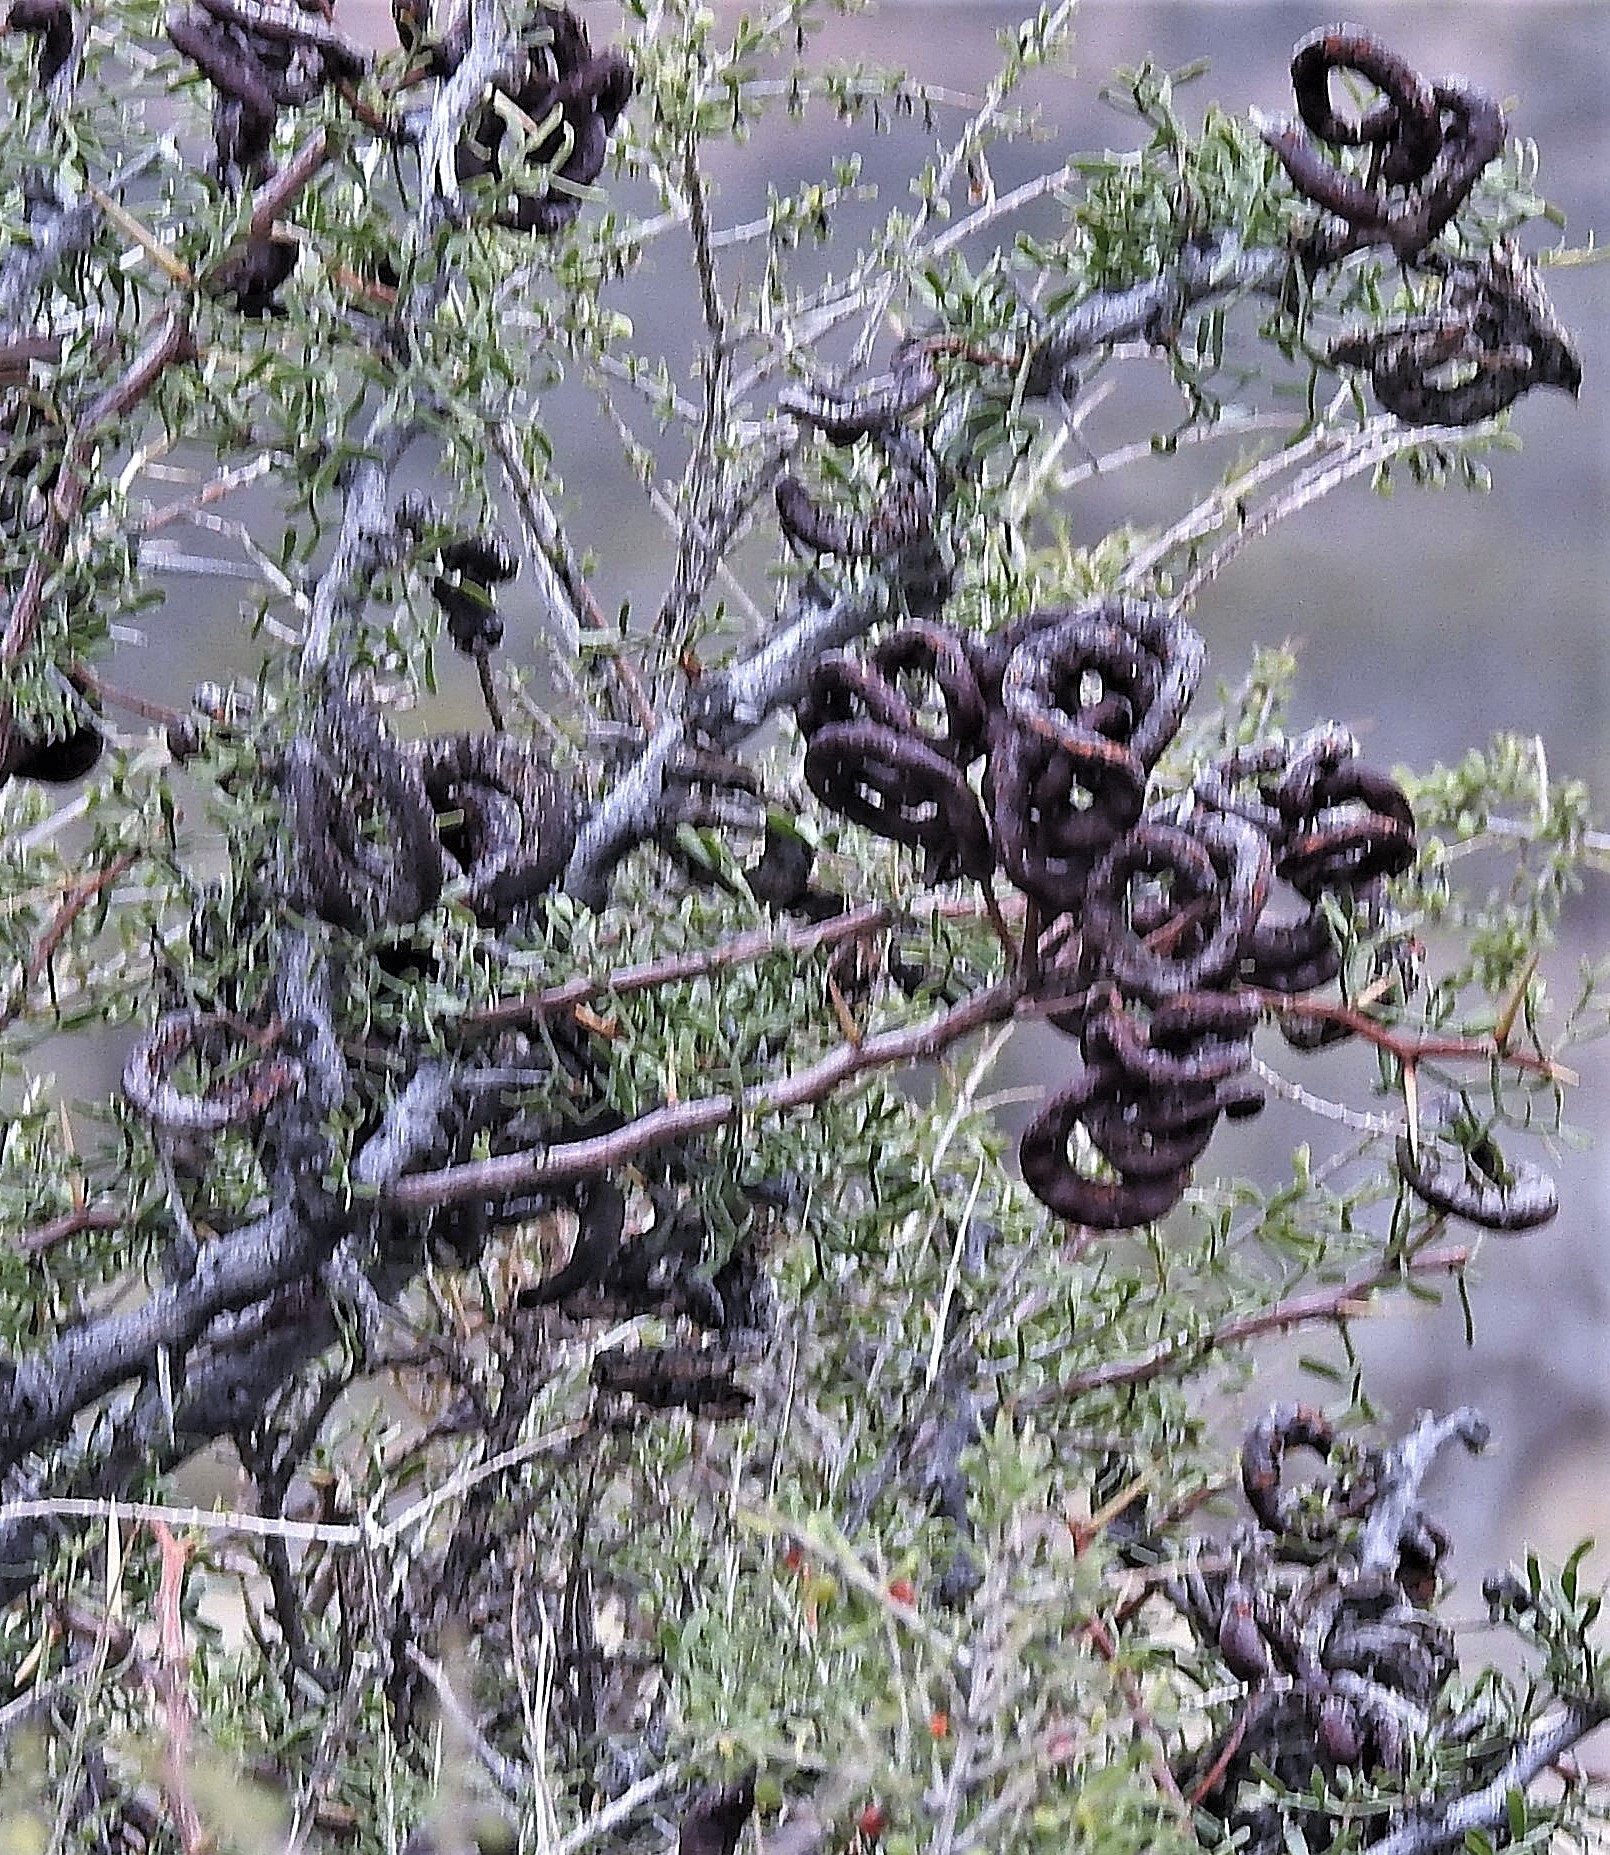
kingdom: Plantae
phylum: Tracheophyta
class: Magnoliopsida
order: Fabales
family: Fabaceae
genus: Prosopis
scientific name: Prosopis denudans
